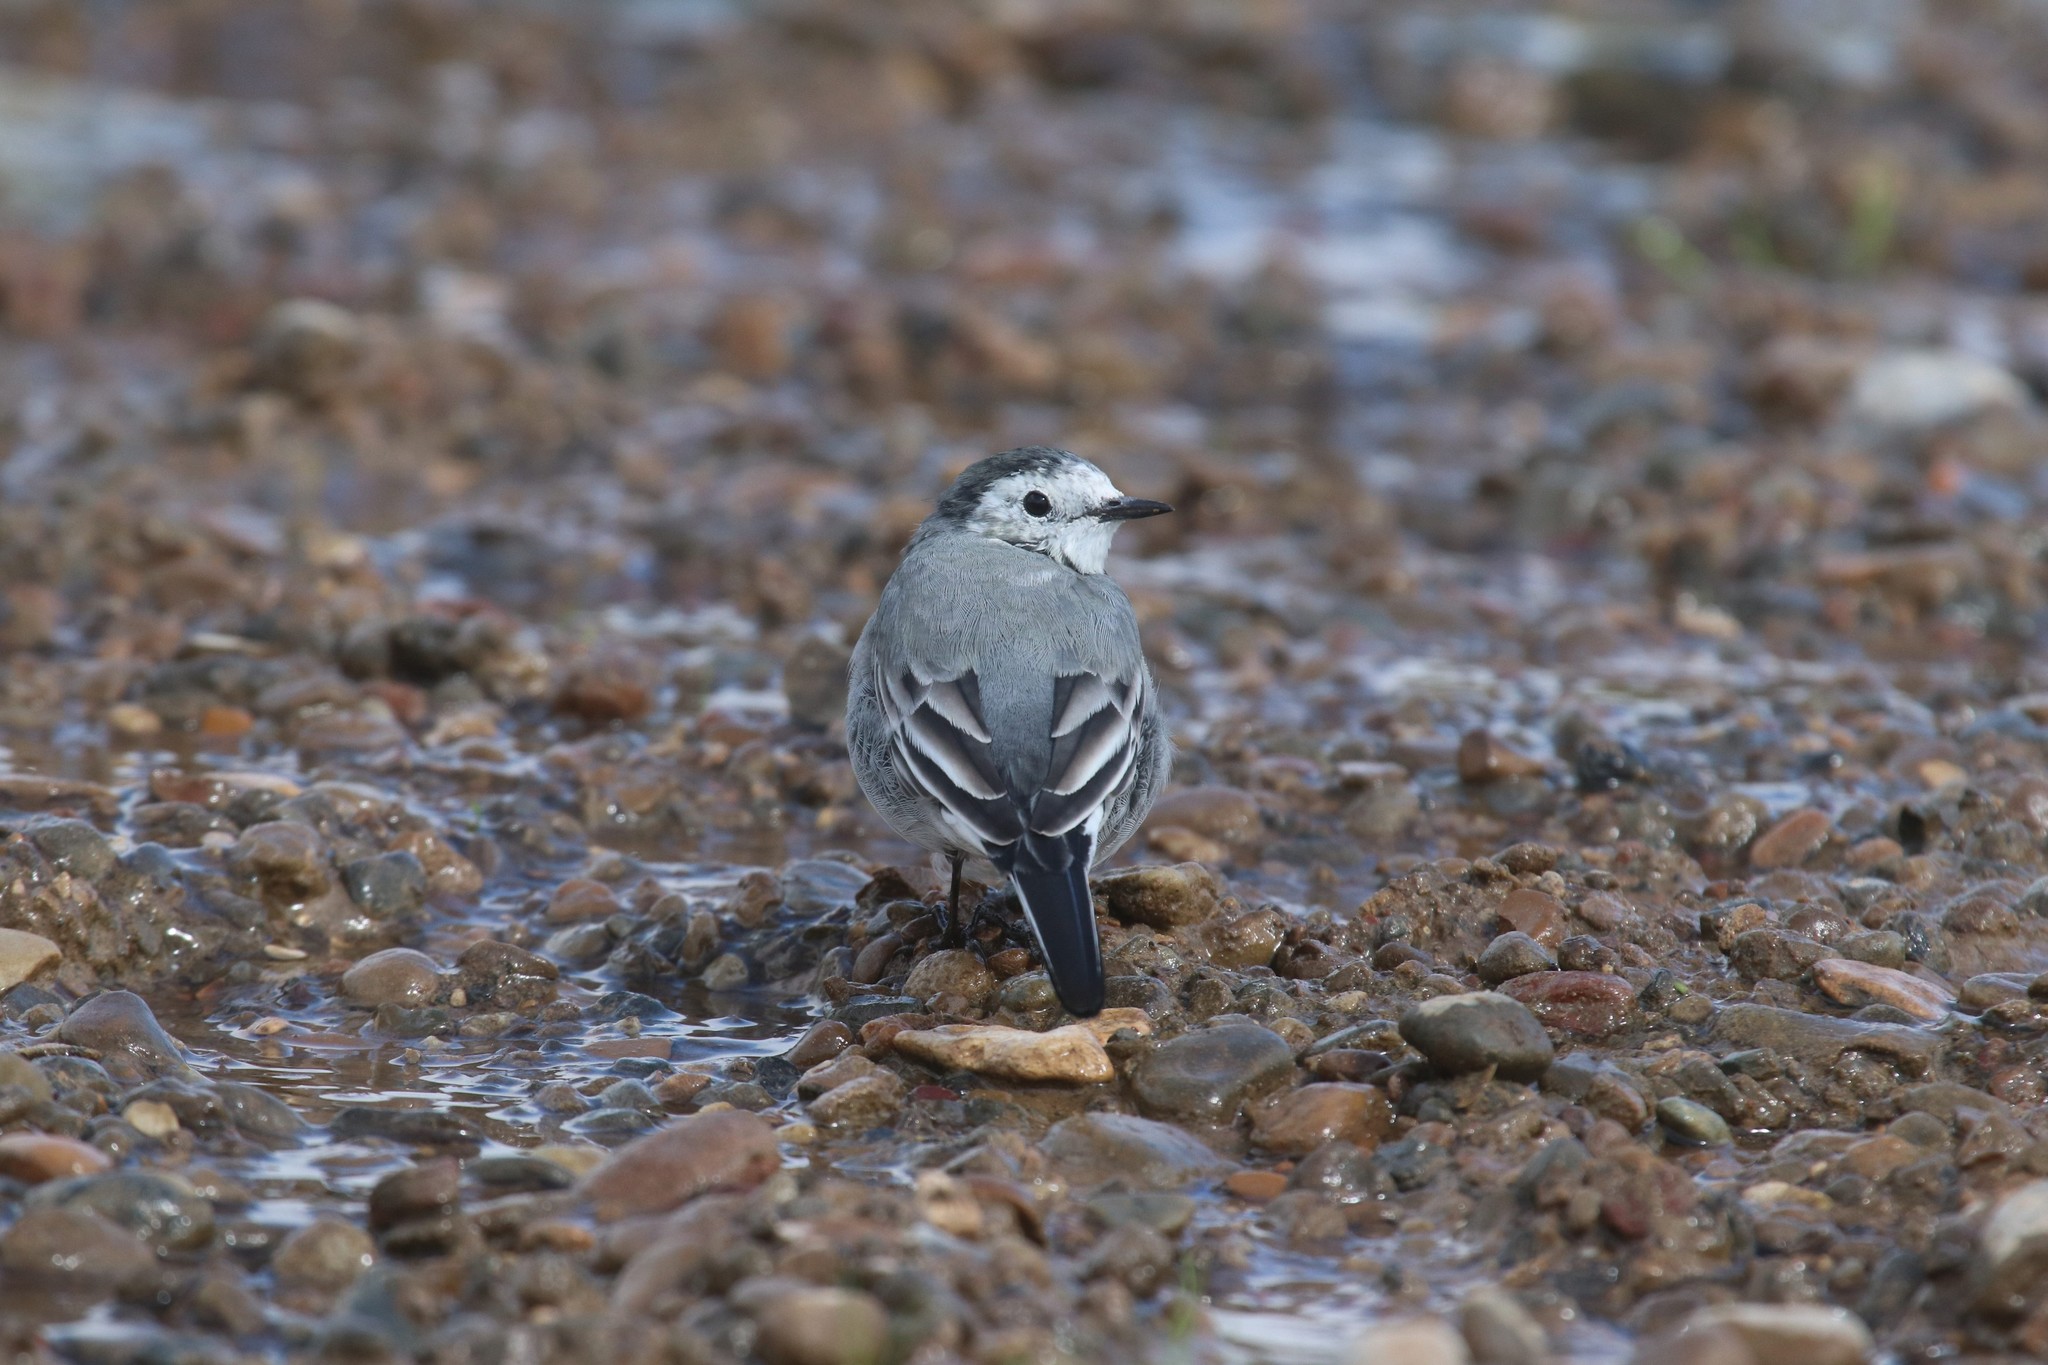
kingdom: Animalia
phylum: Chordata
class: Aves
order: Passeriformes
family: Motacillidae
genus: Motacilla
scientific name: Motacilla alba
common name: White wagtail
